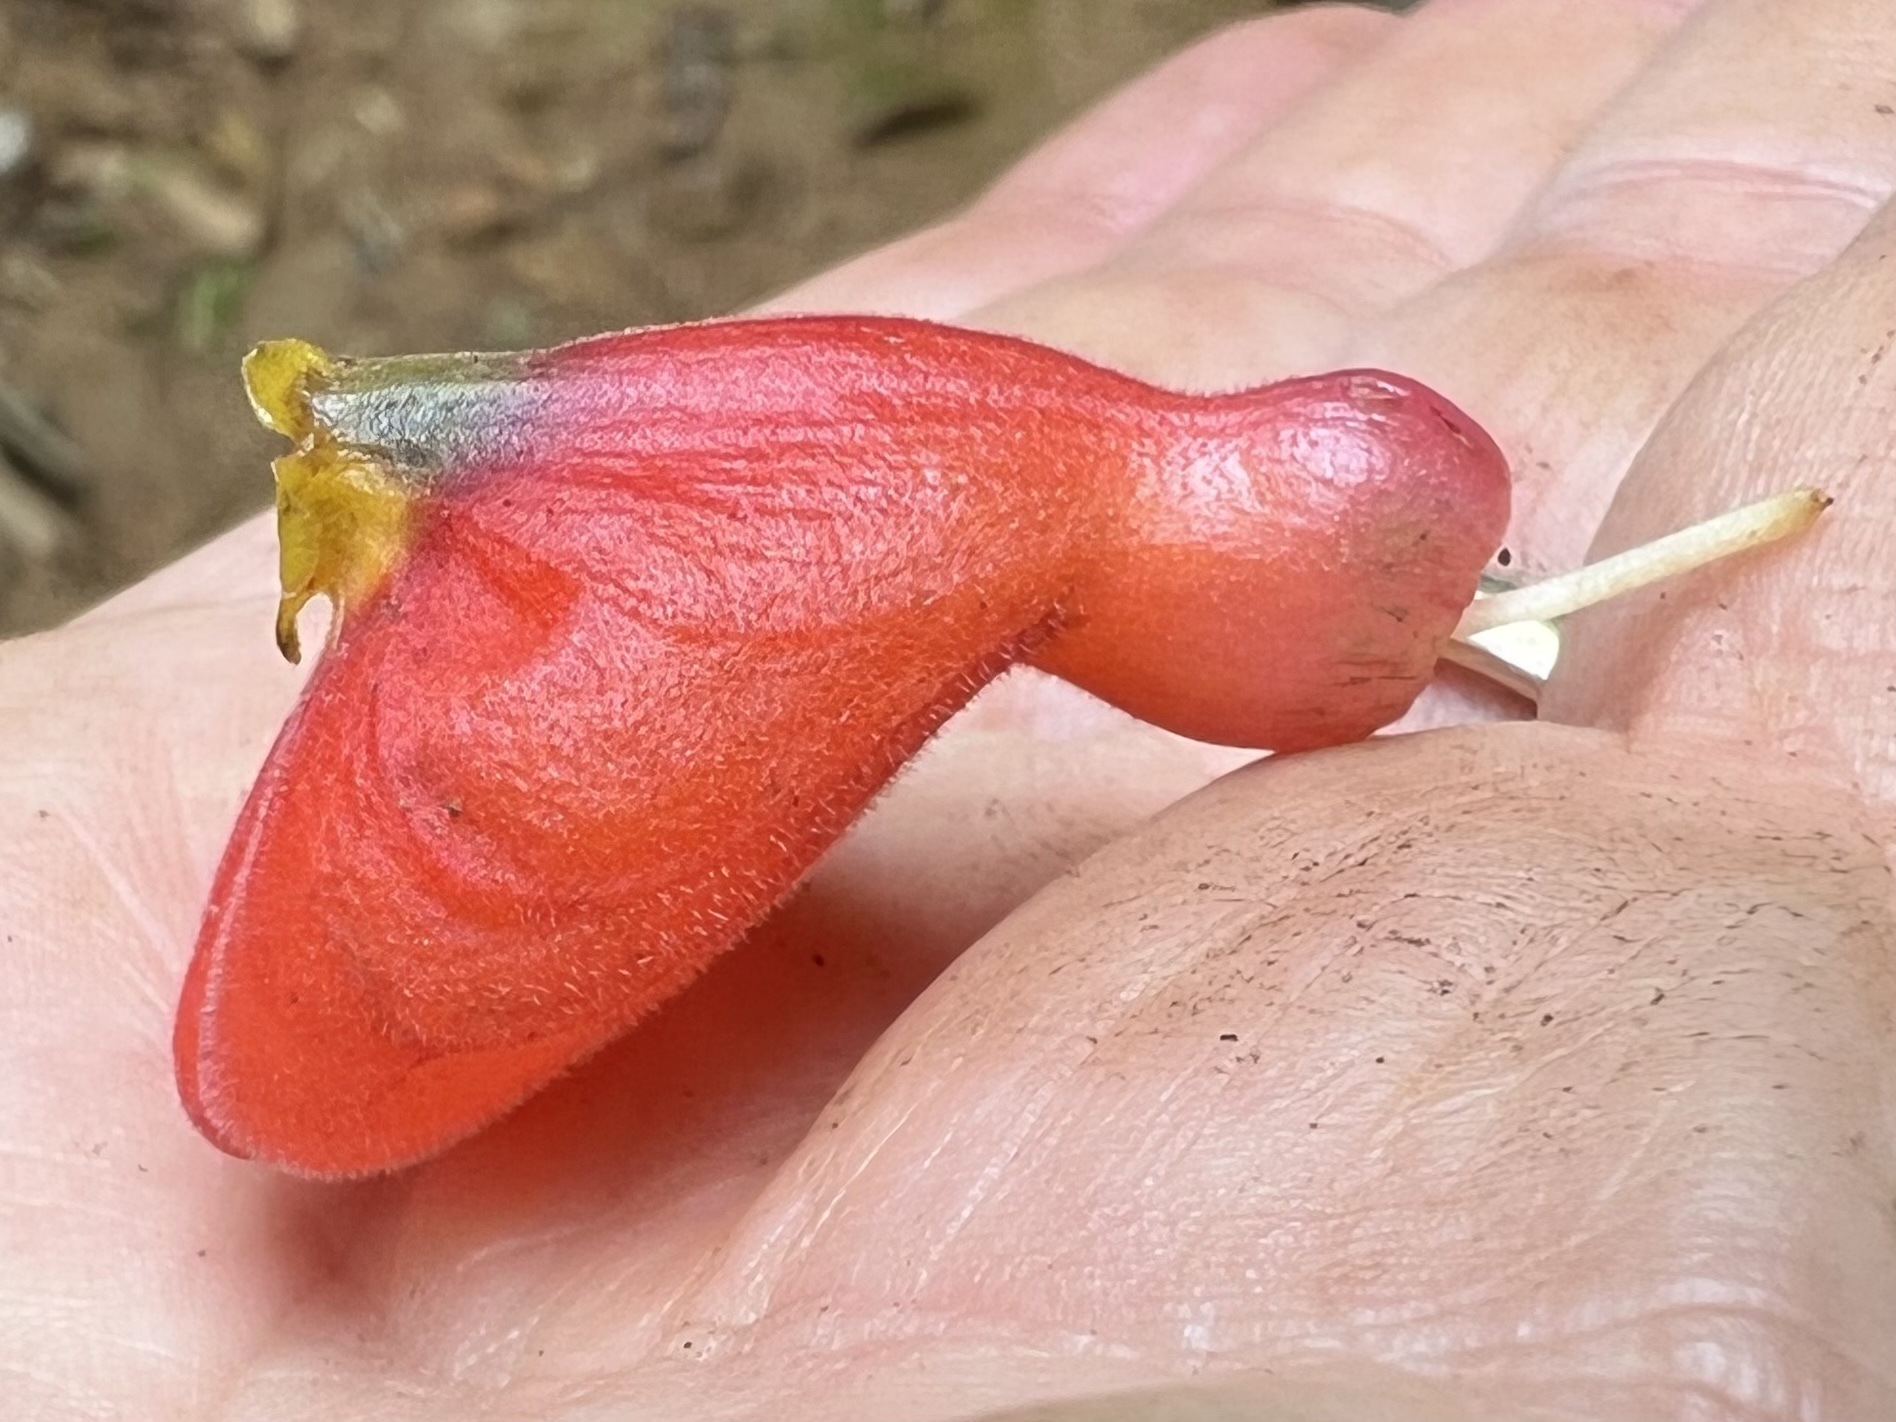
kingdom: Plantae
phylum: Tracheophyta
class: Magnoliopsida
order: Lamiales
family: Gesneriaceae
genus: Pachycaulos
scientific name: Pachycaulos nummularia
